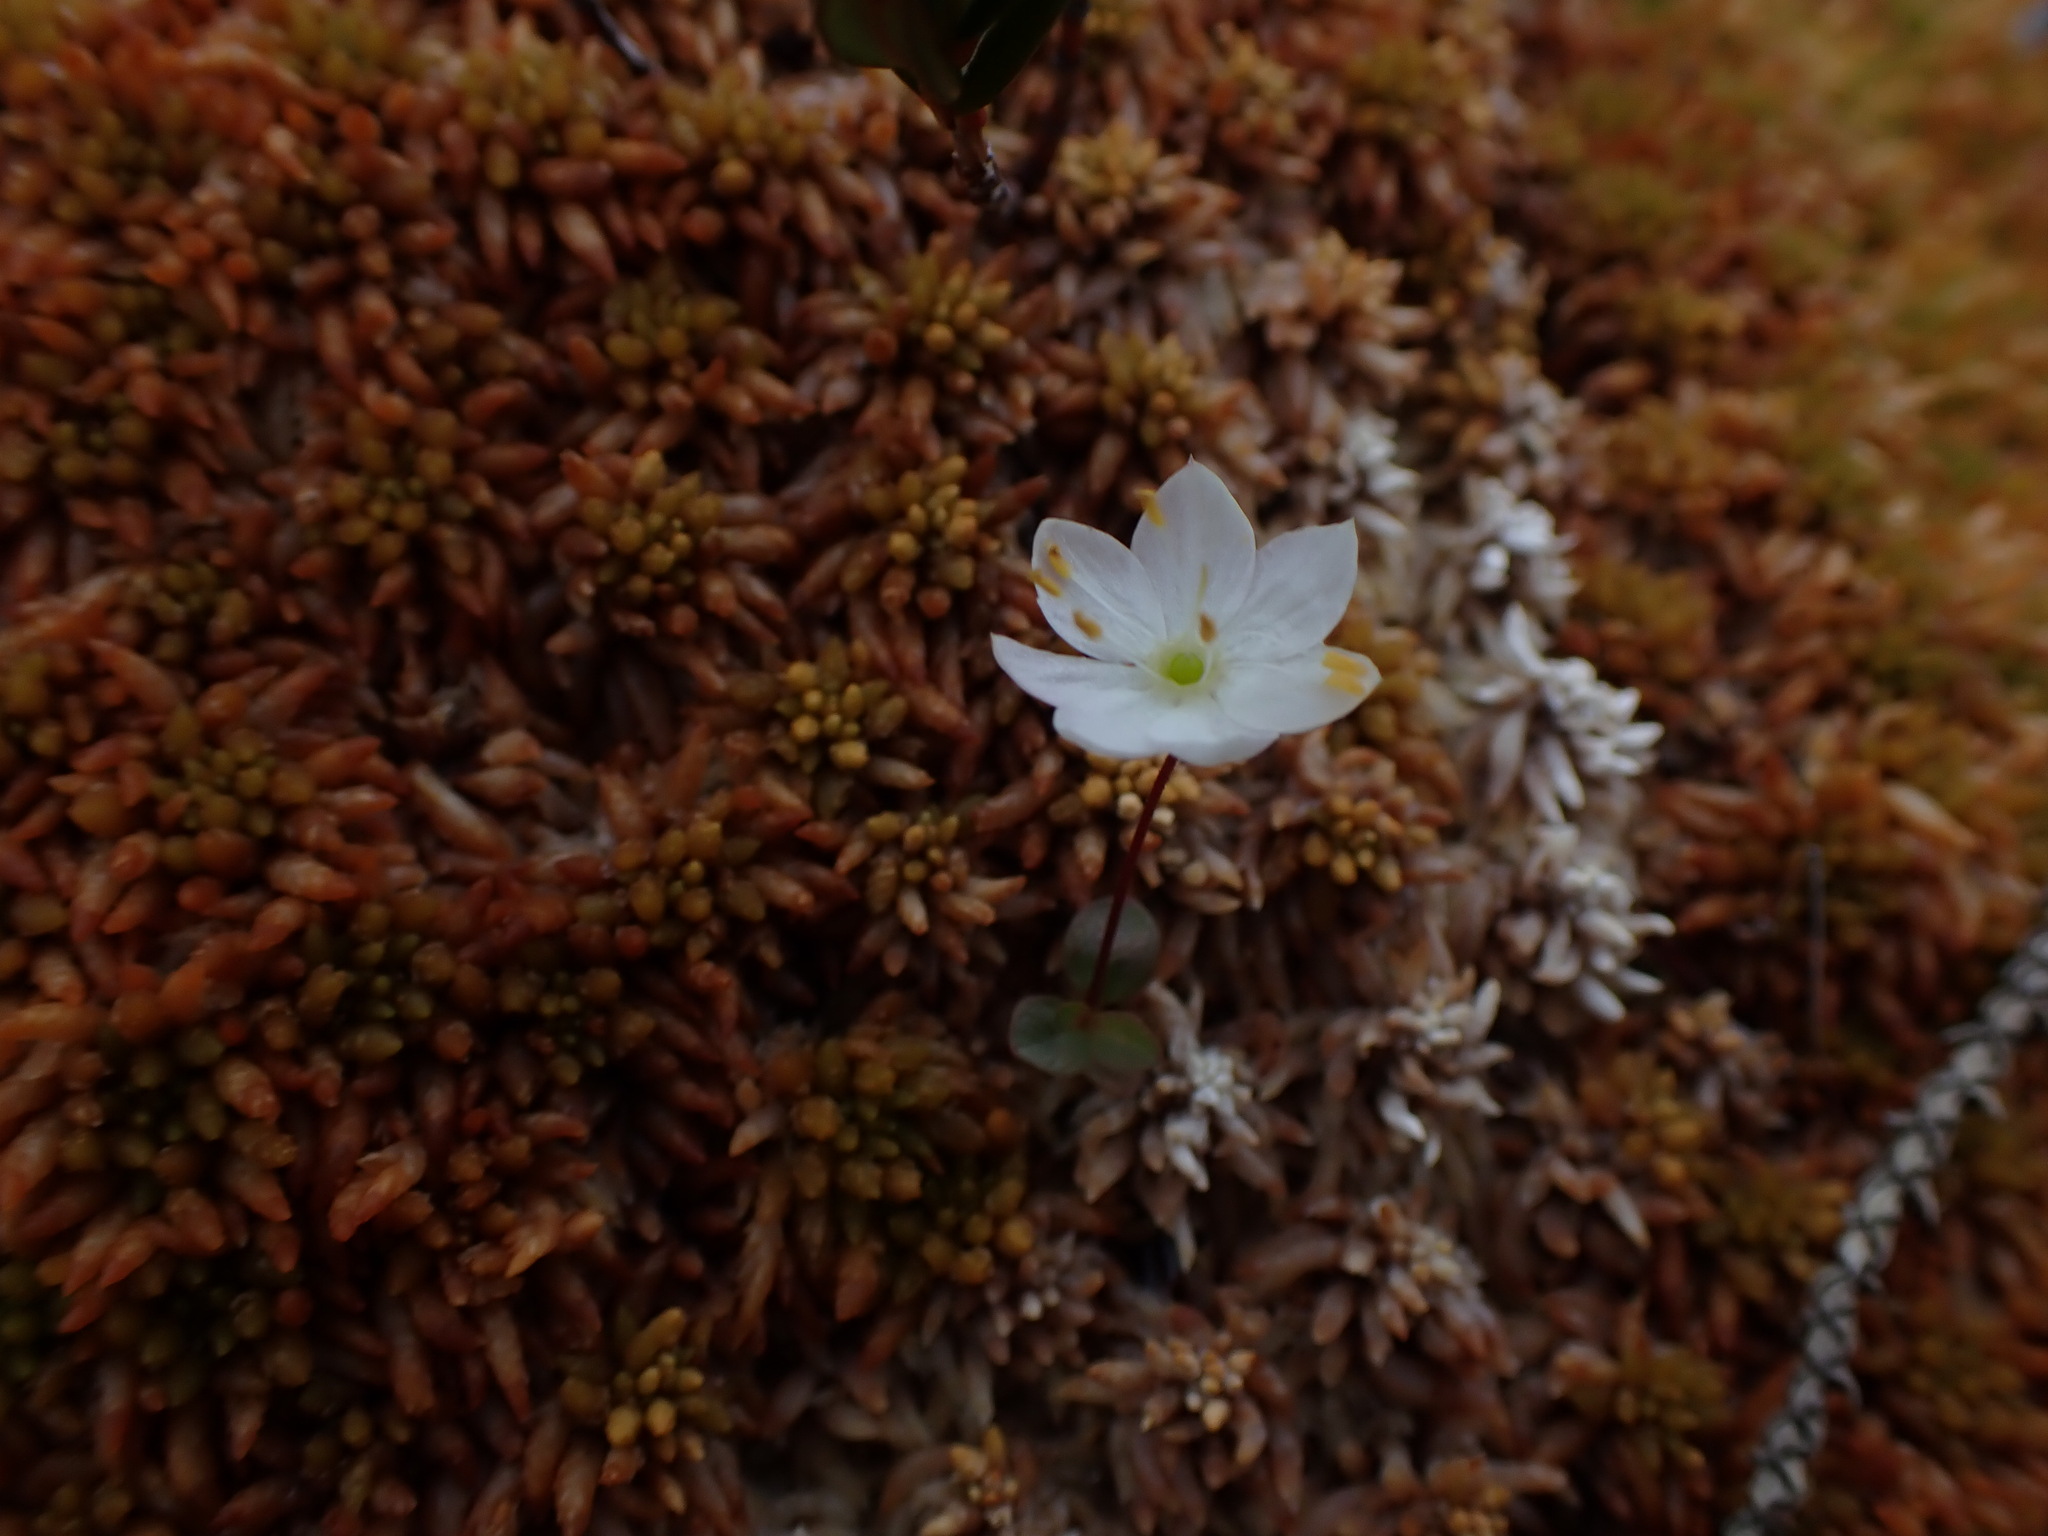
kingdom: Plantae
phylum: Tracheophyta
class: Magnoliopsida
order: Ericales
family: Primulaceae
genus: Lysimachia
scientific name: Lysimachia europaea
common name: Arctic starflower
